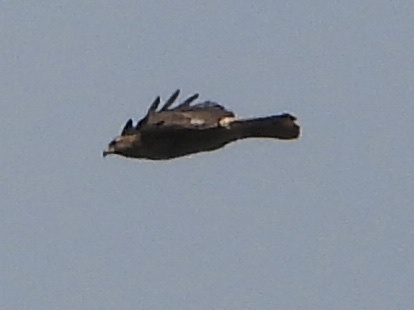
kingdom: Animalia
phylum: Chordata
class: Aves
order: Accipitriformes
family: Accipitridae
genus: Buteo
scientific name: Buteo jamaicensis
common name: Red-tailed hawk
